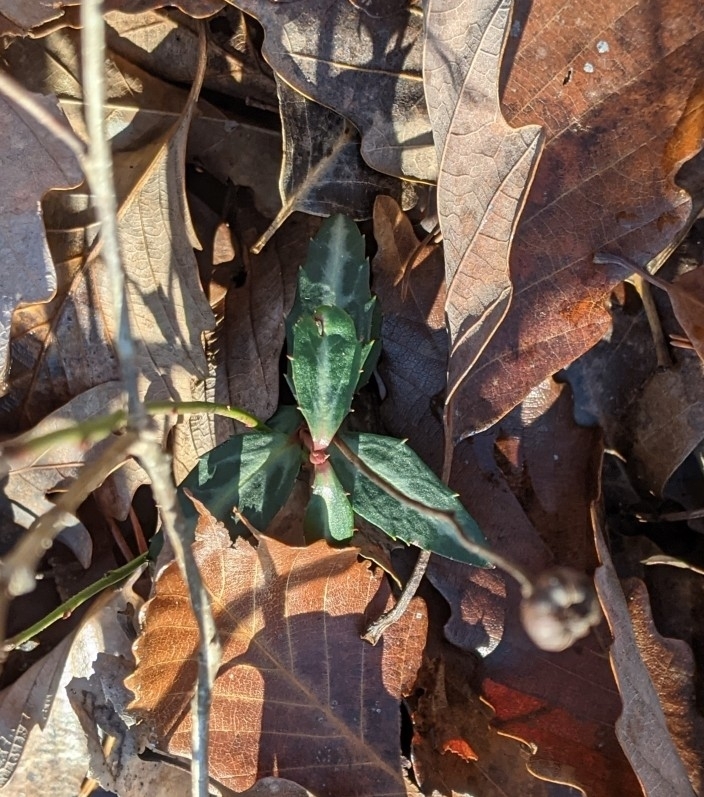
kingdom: Plantae
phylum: Tracheophyta
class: Magnoliopsida
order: Ericales
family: Ericaceae
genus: Chimaphila
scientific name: Chimaphila maculata
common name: Spotted pipsissewa
